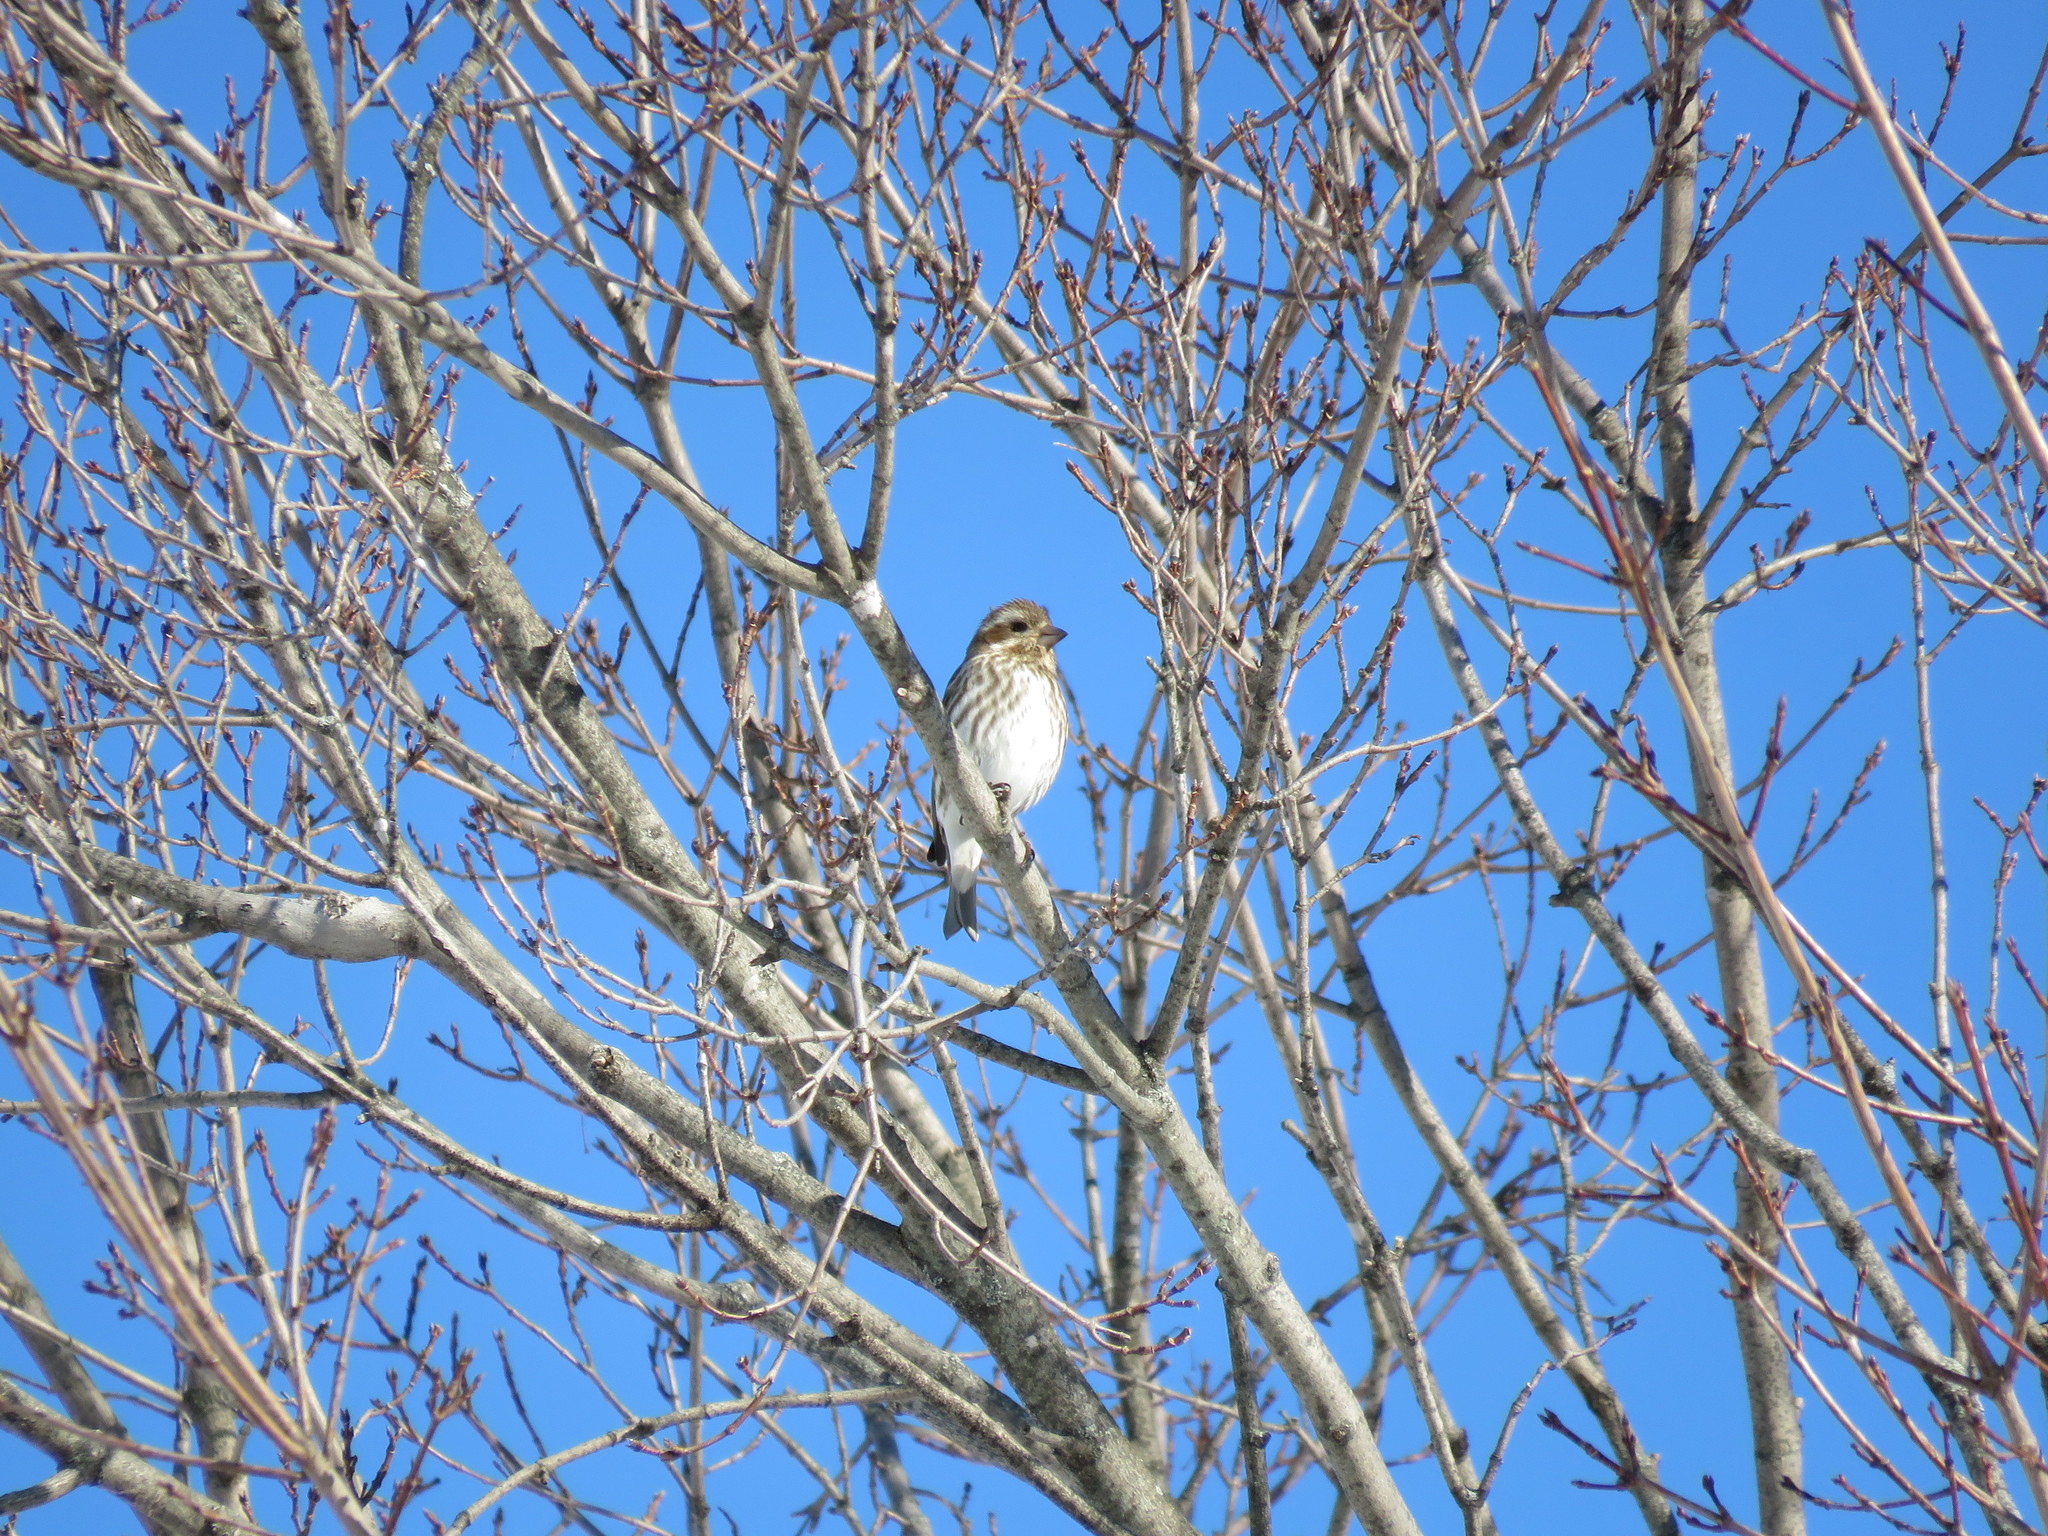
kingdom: Animalia
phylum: Chordata
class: Aves
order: Passeriformes
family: Fringillidae
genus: Haemorhous
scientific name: Haemorhous purpureus
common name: Purple finch
